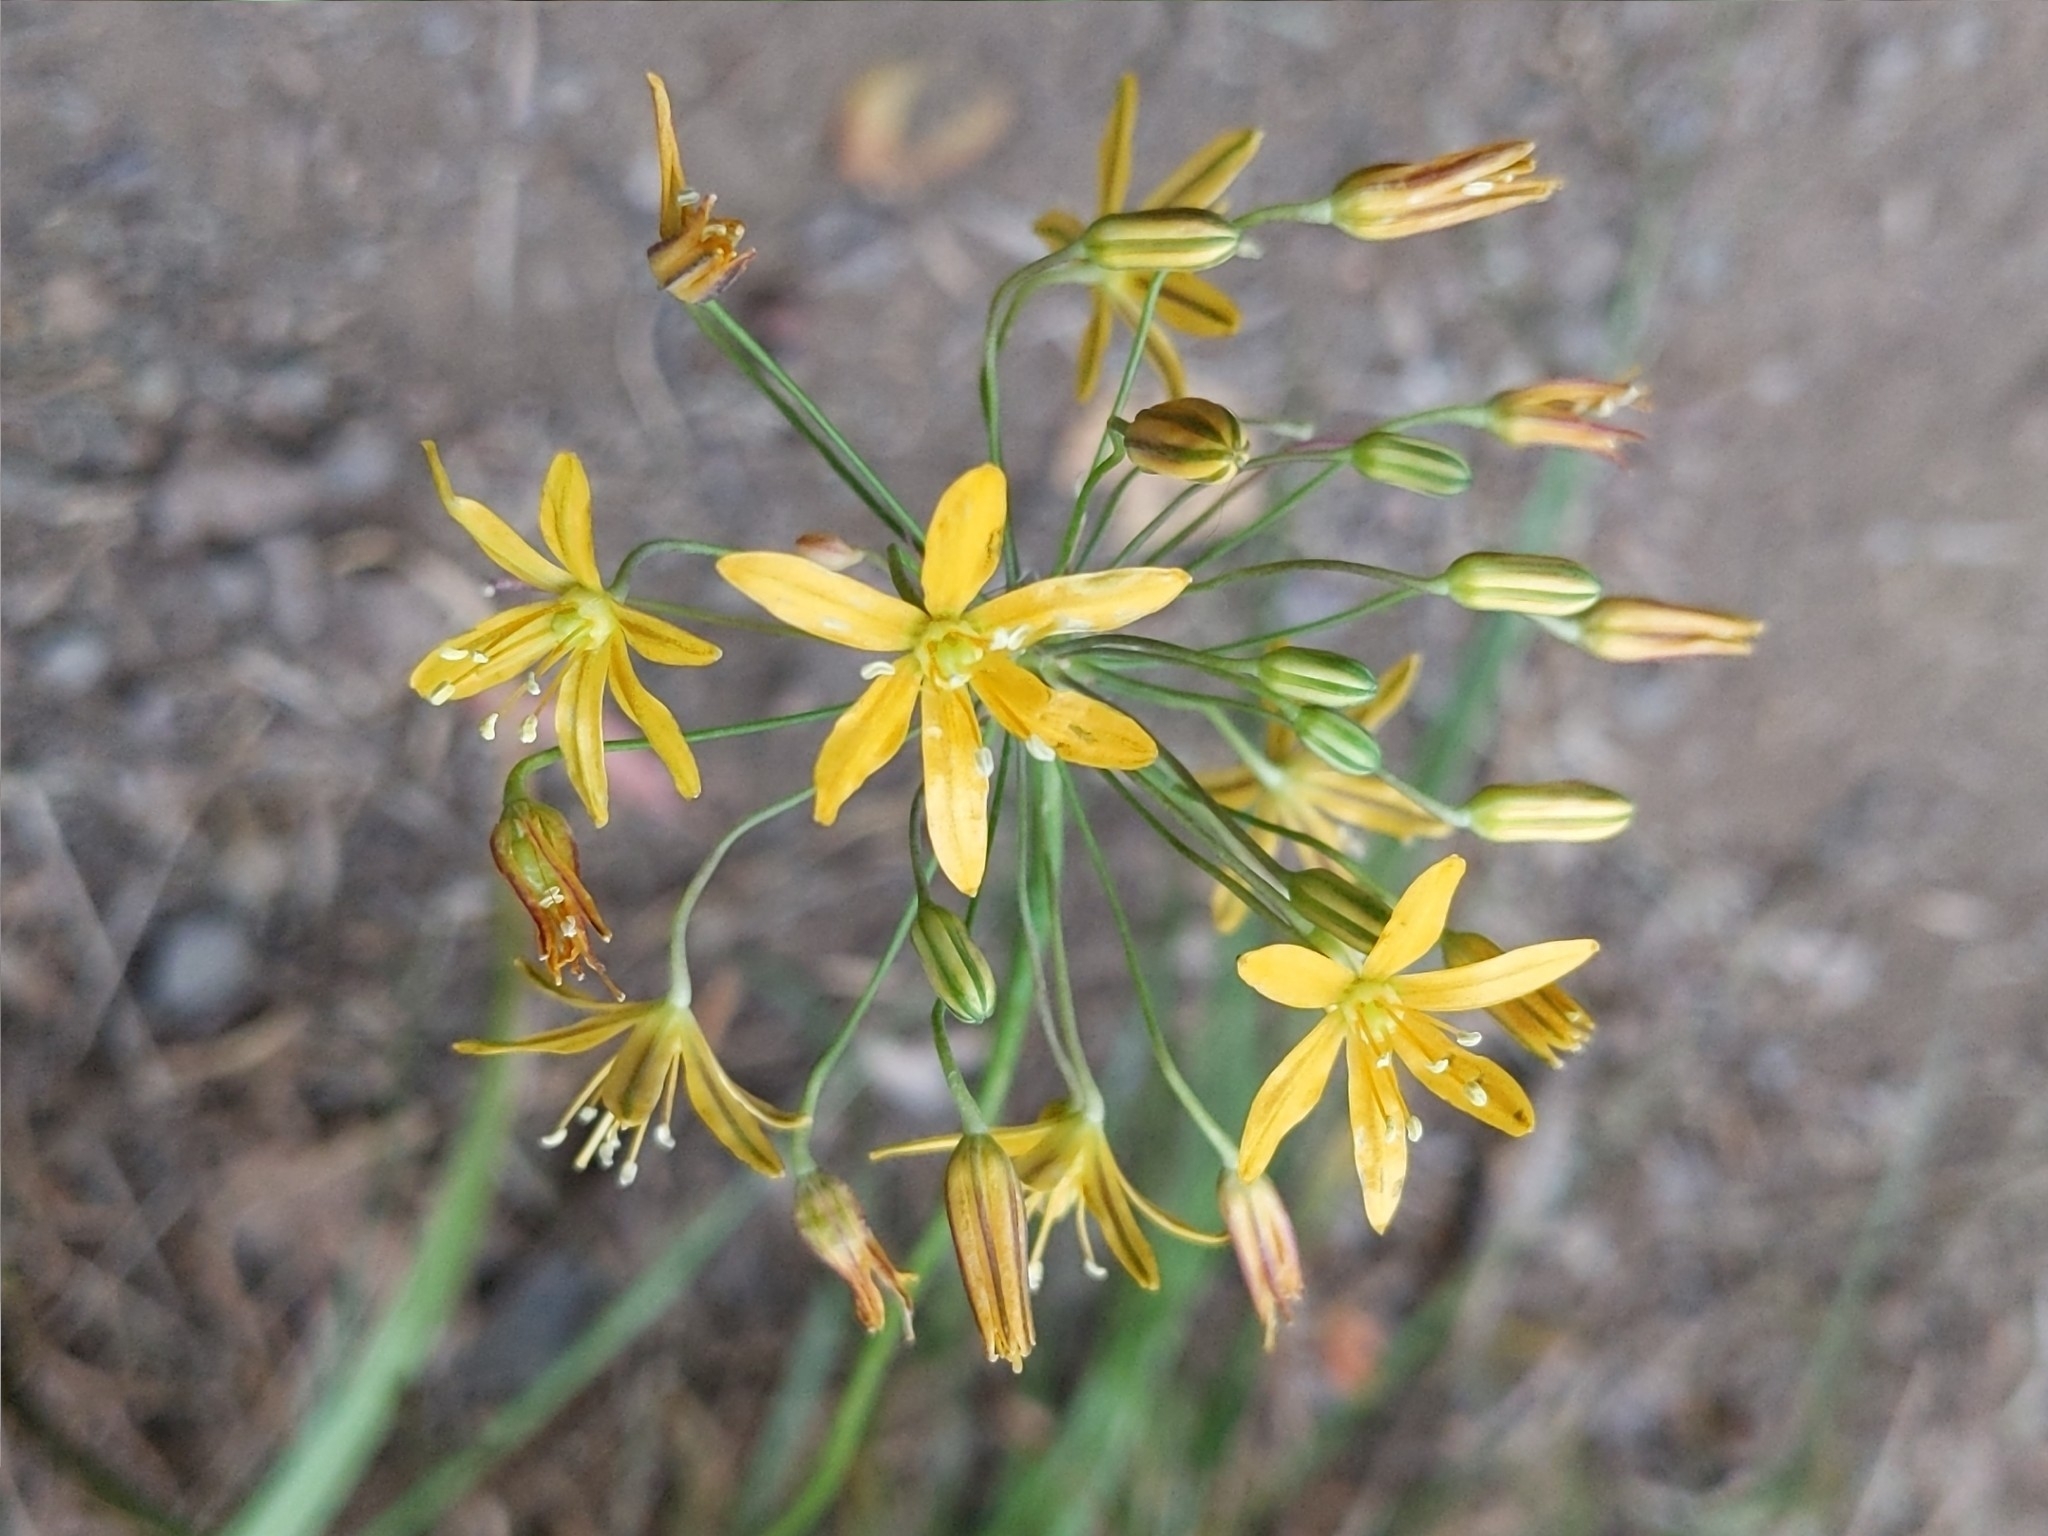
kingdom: Plantae
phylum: Tracheophyta
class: Liliopsida
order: Asparagales
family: Asparagaceae
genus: Bloomeria
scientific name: Bloomeria crocea
